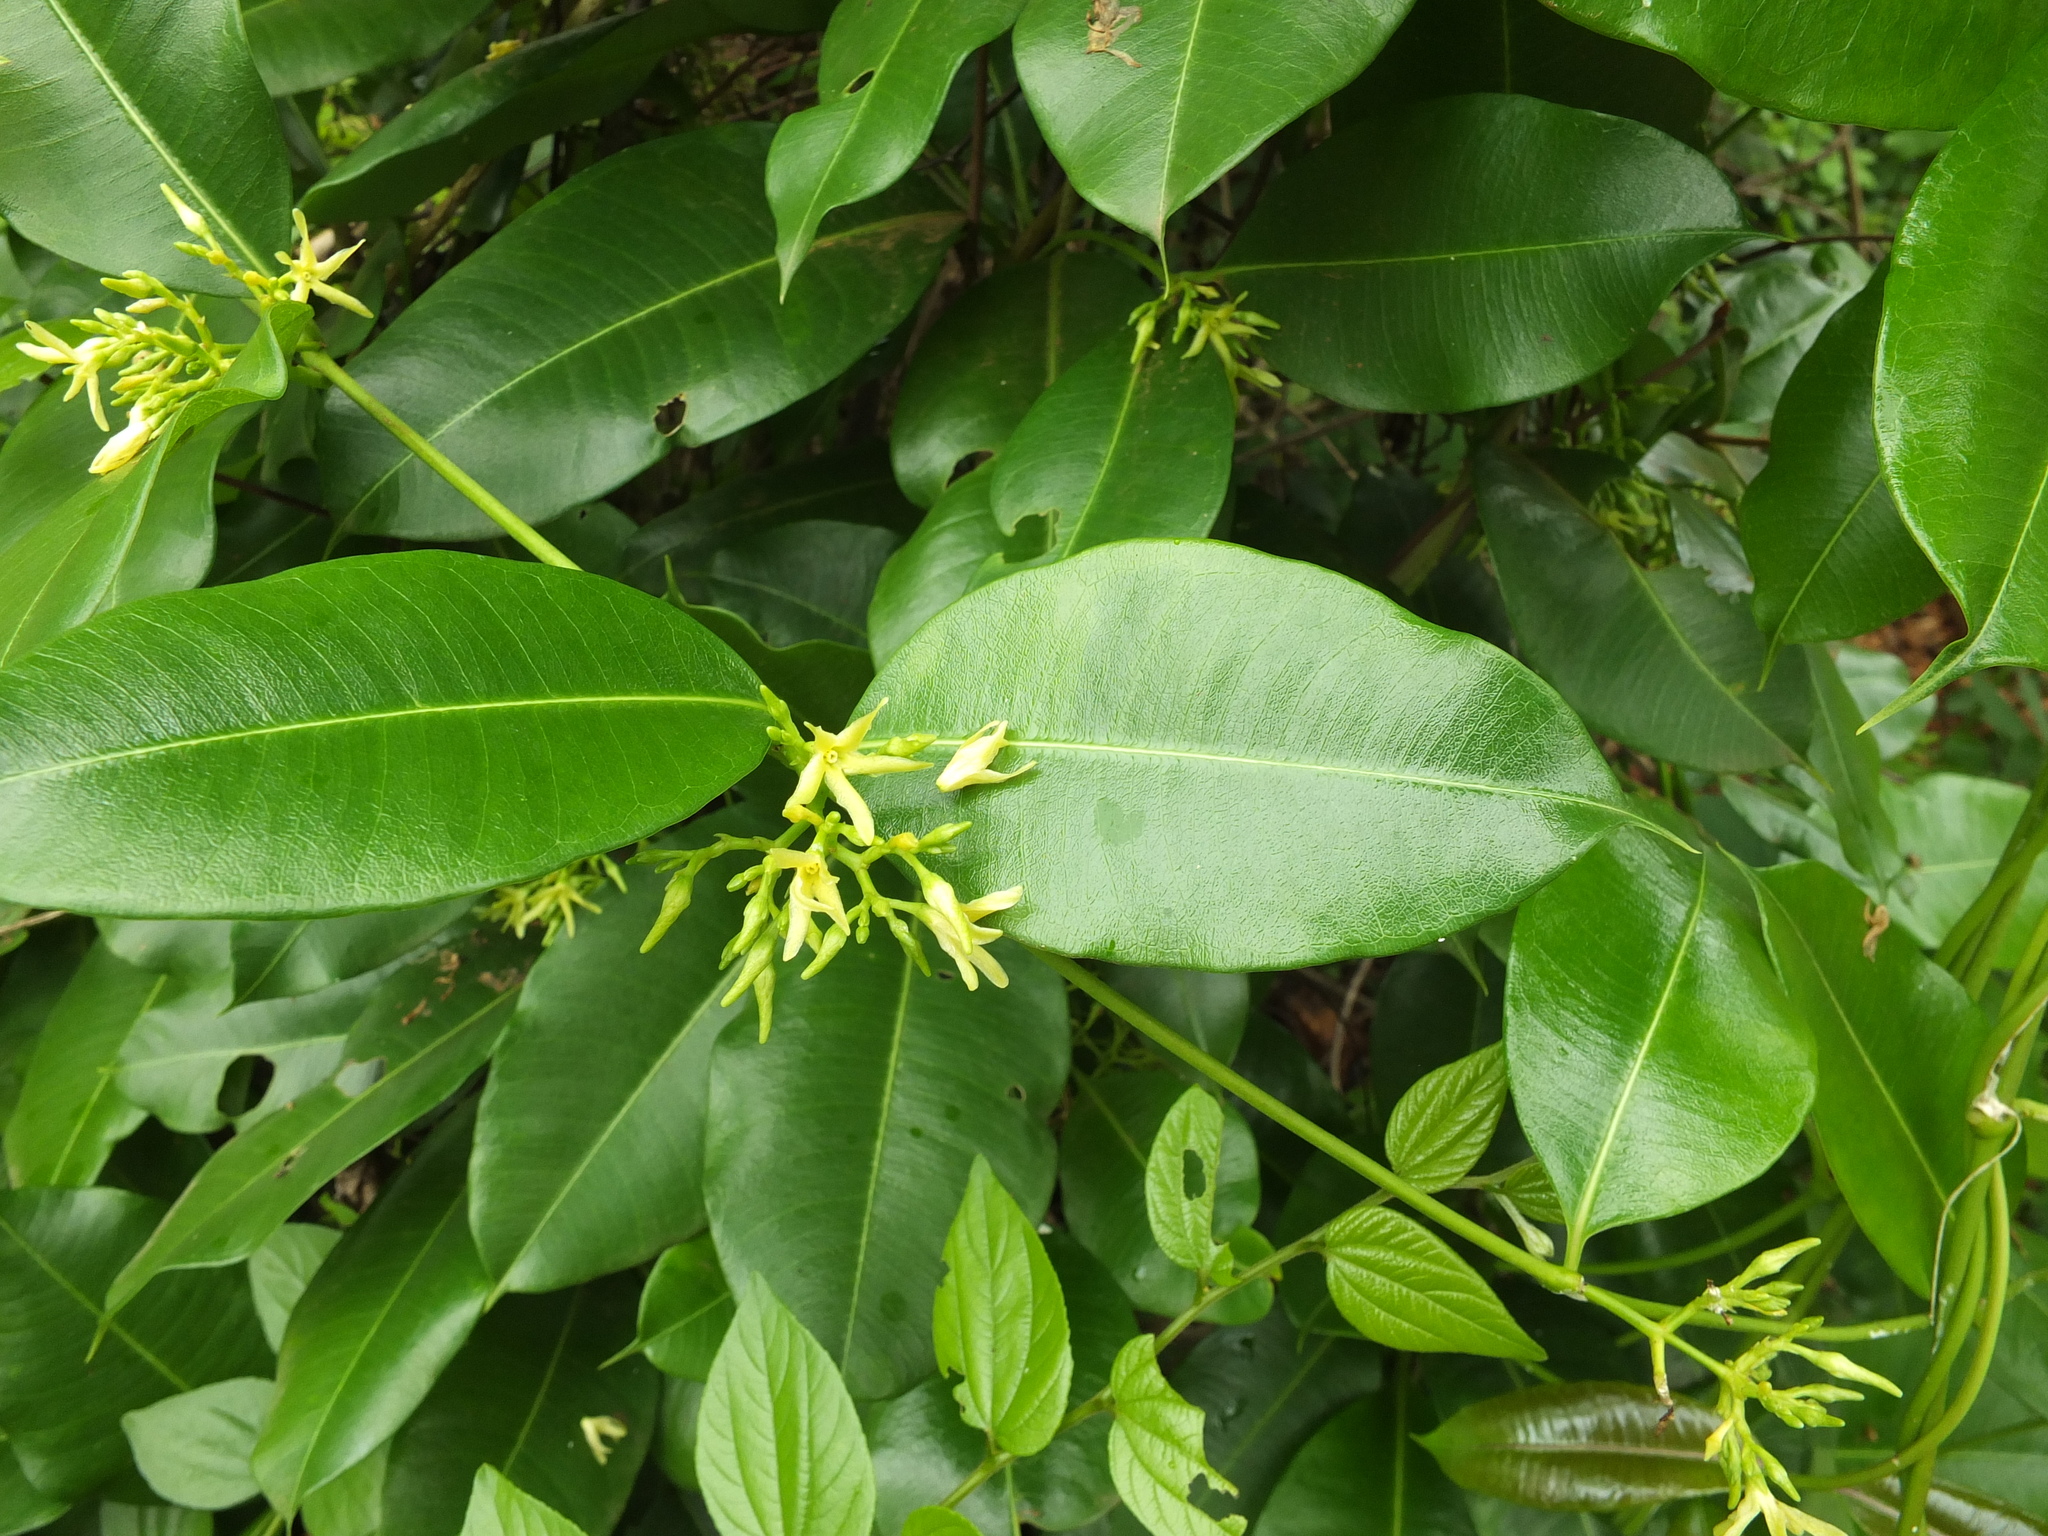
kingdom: Plantae
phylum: Tracheophyta
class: Magnoliopsida
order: Gentianales
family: Apocynaceae
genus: Cryptolepis
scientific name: Cryptolepis buchananii
